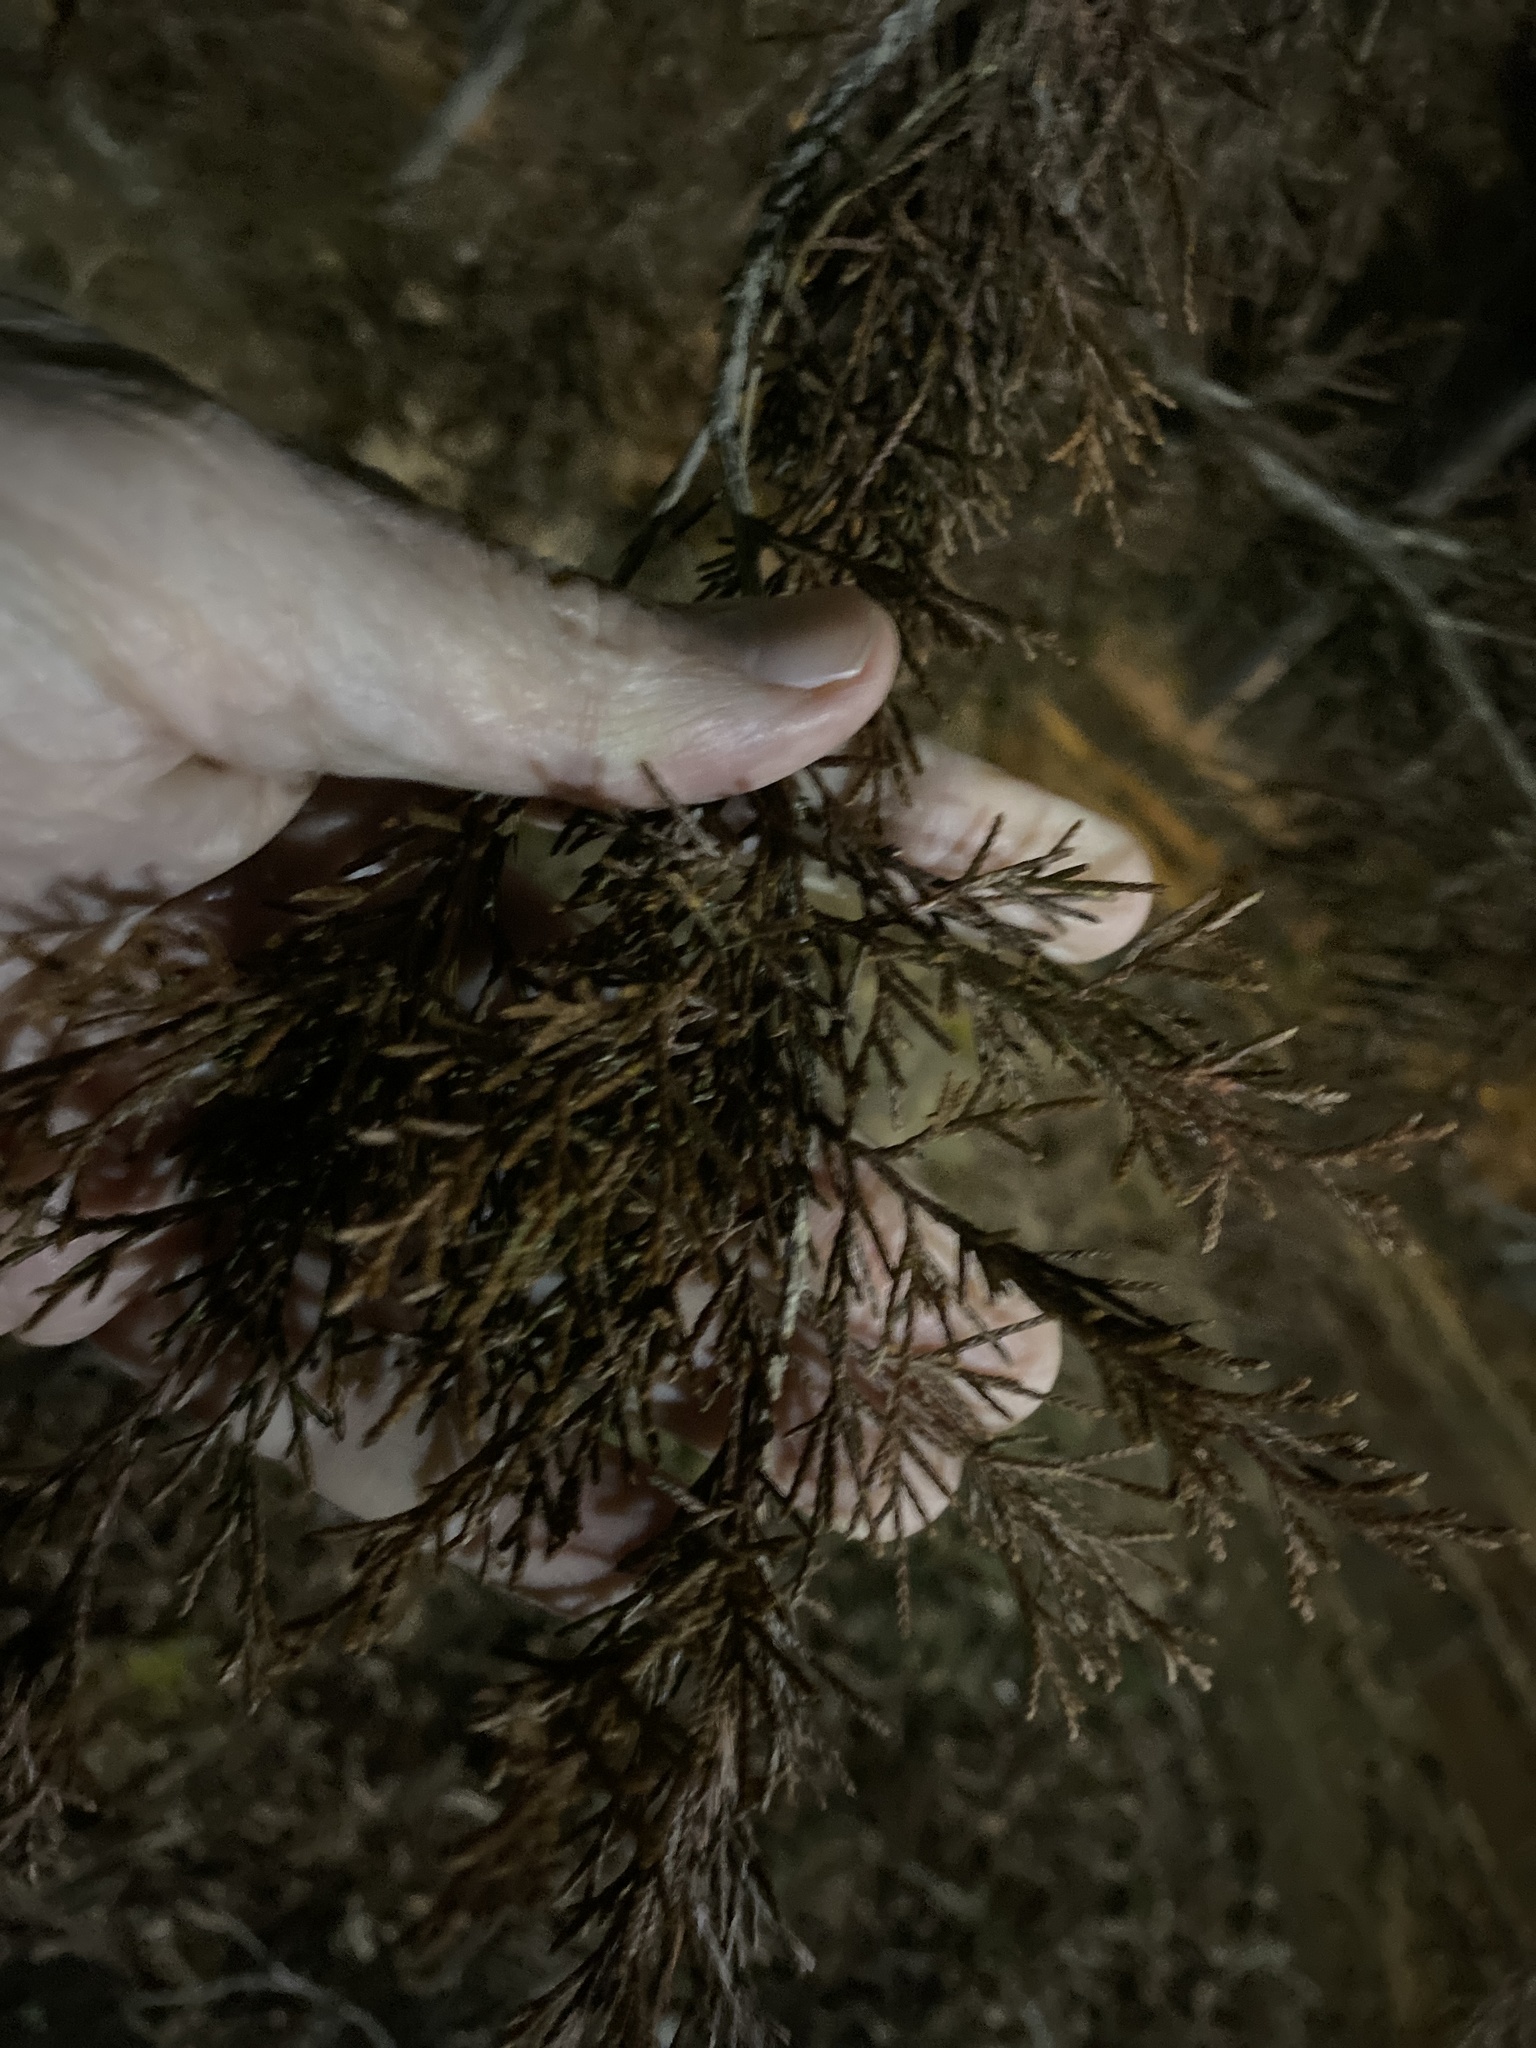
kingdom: Plantae
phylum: Tracheophyta
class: Pinopsida
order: Pinales
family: Cupressaceae
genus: Juniperus
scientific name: Juniperus virginiana
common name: Red juniper
